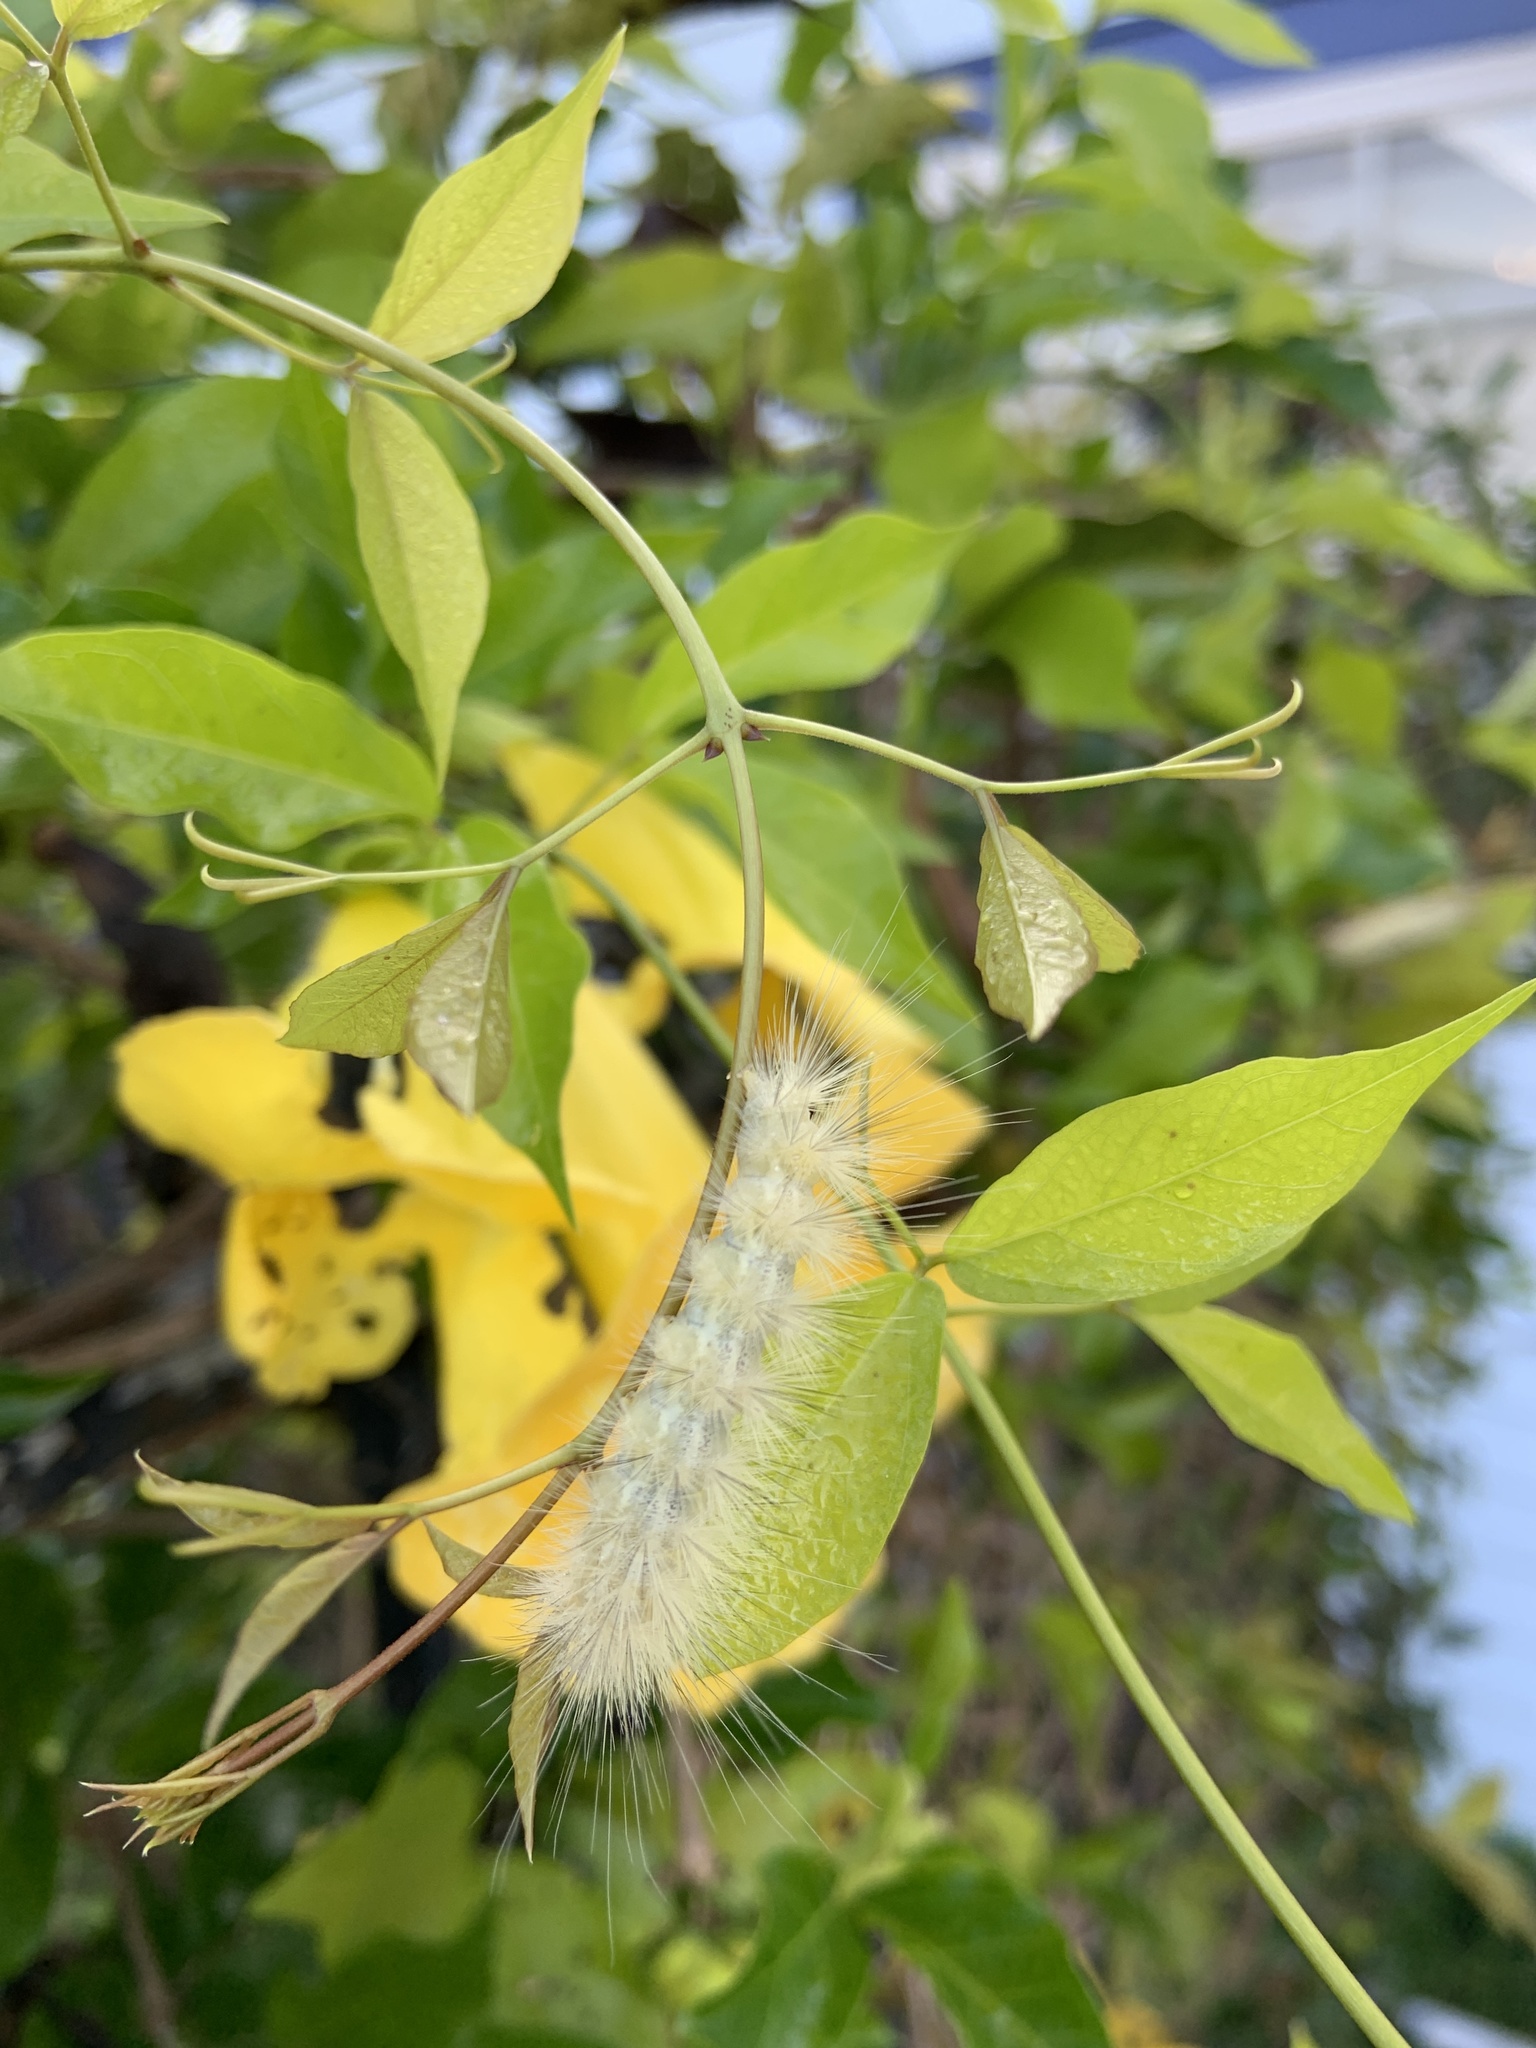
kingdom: Animalia
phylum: Arthropoda
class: Insecta
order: Lepidoptera
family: Erebidae
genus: Spilosoma
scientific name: Spilosoma virginica
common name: Virginia tiger moth
